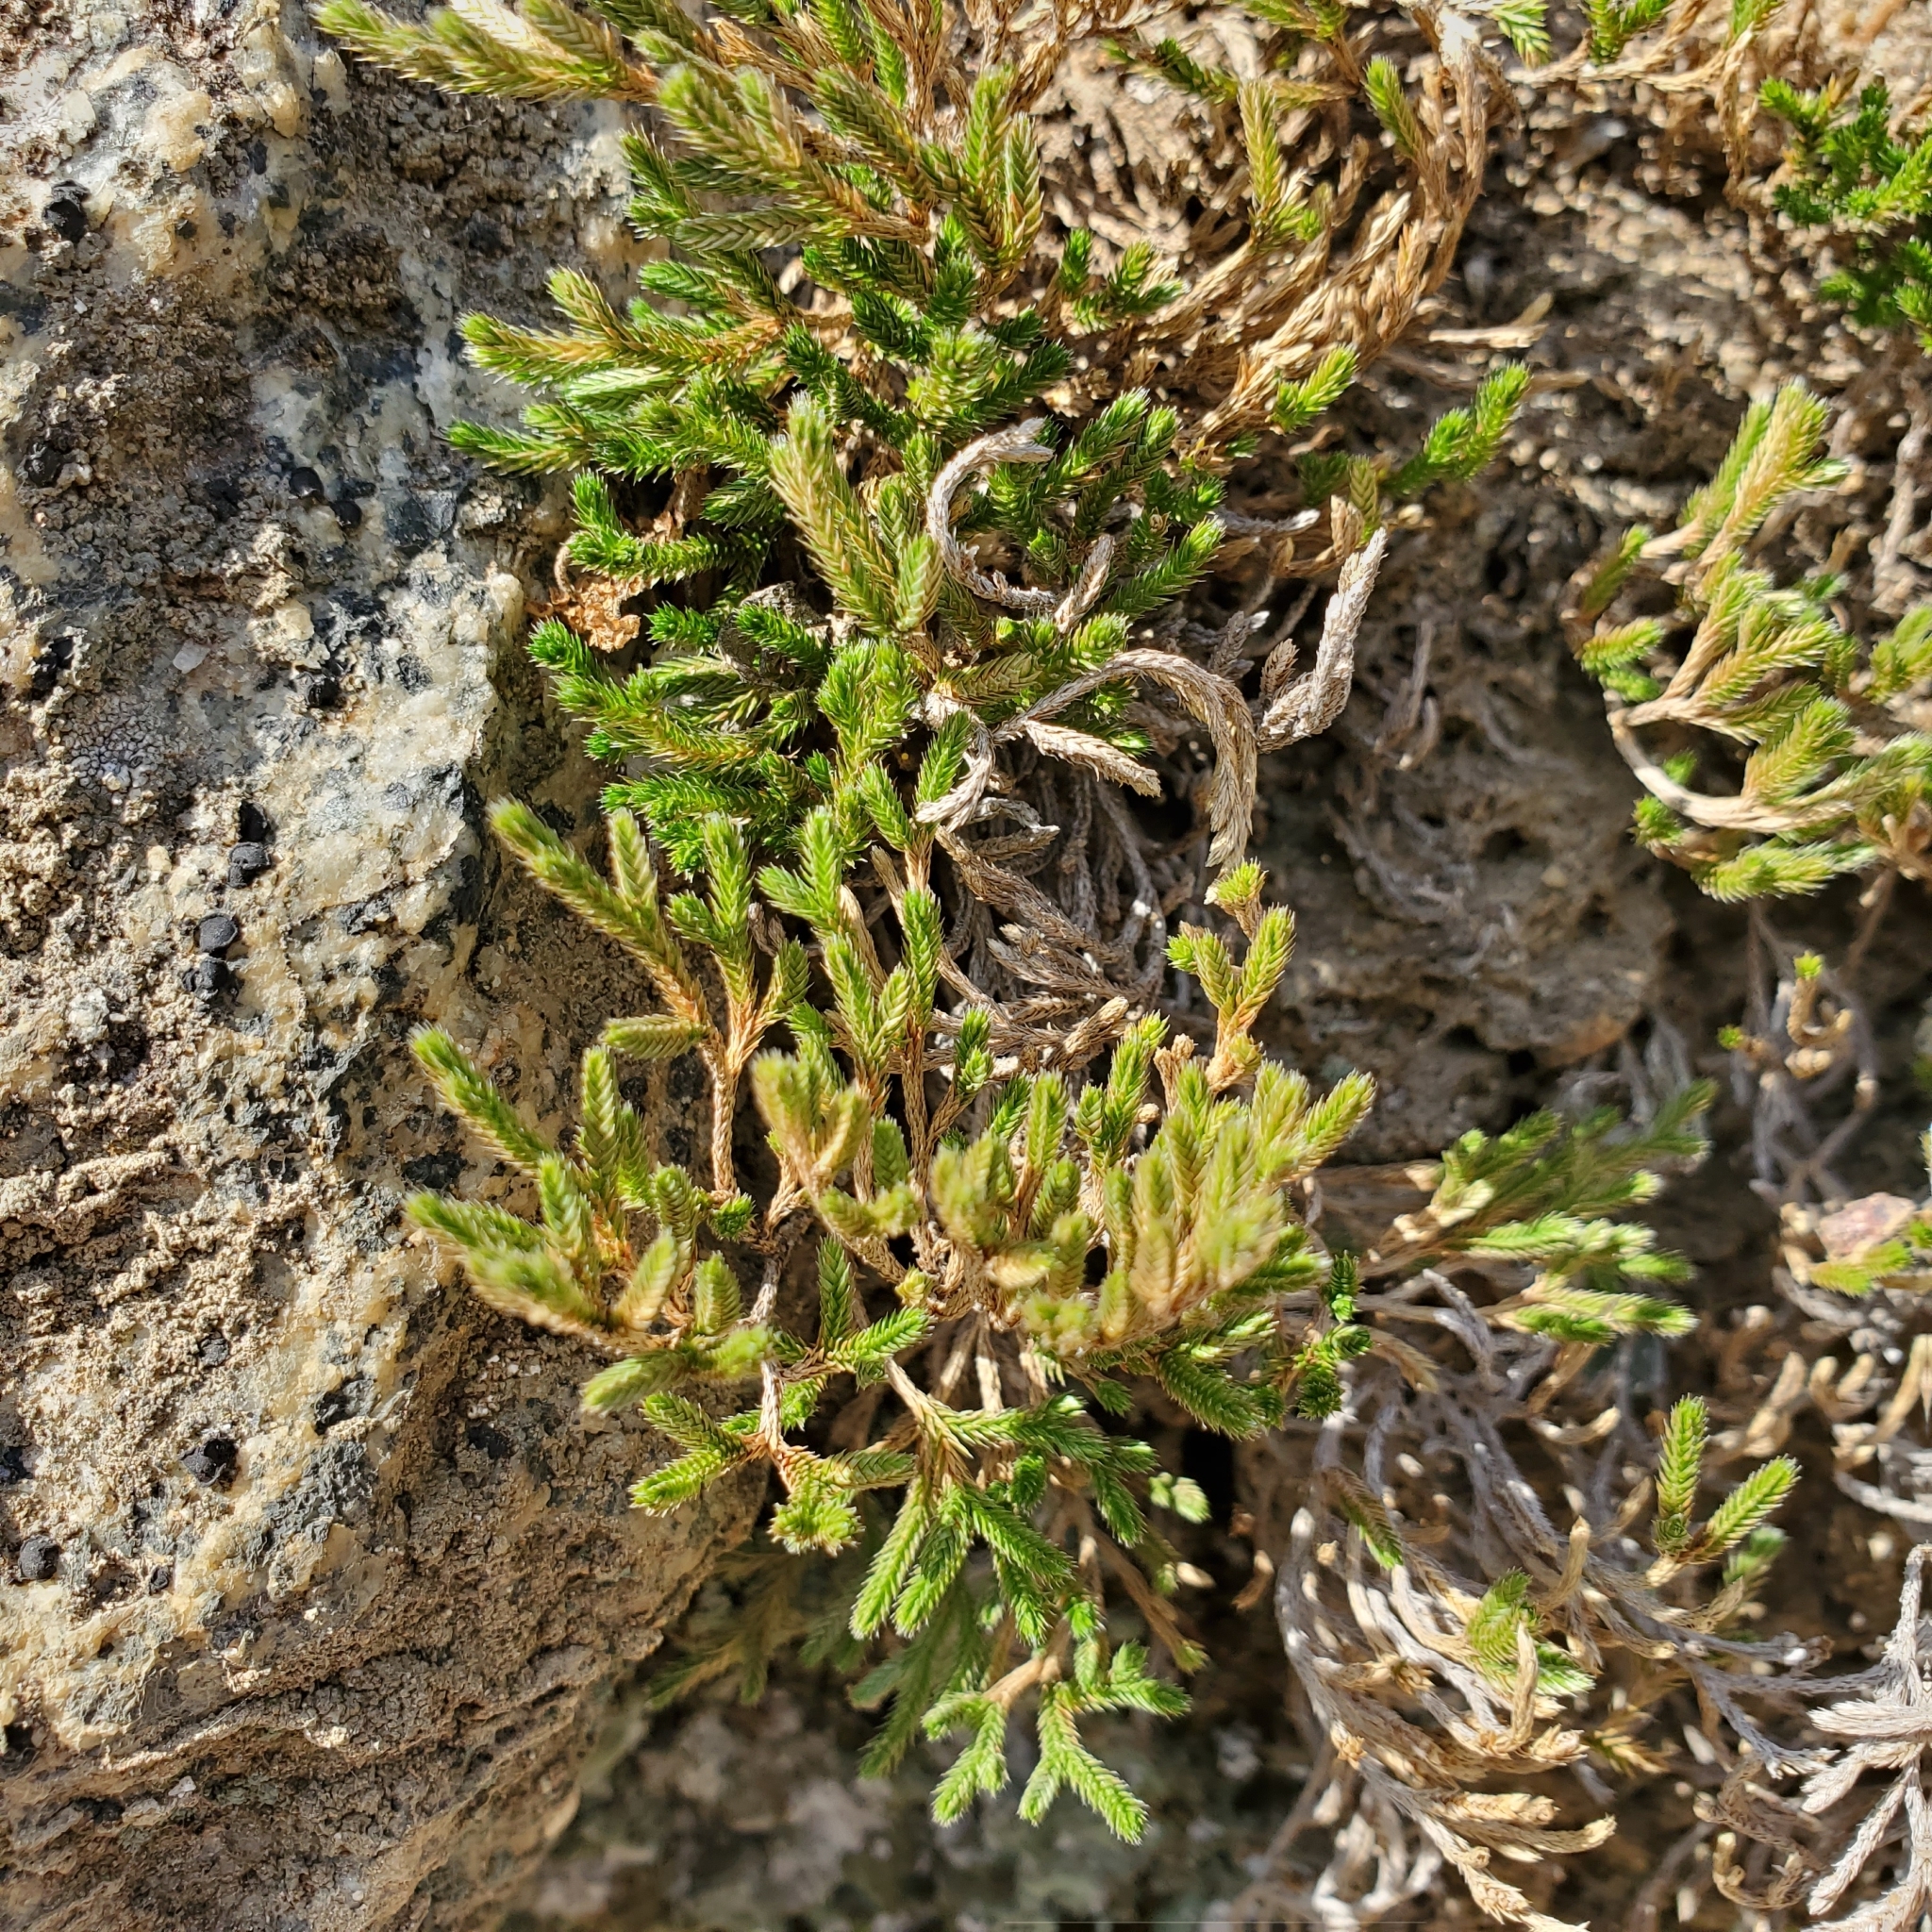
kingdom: Plantae
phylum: Tracheophyta
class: Lycopodiopsida
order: Selaginellales
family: Selaginellaceae
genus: Selaginella
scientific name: Selaginella bigelovii
